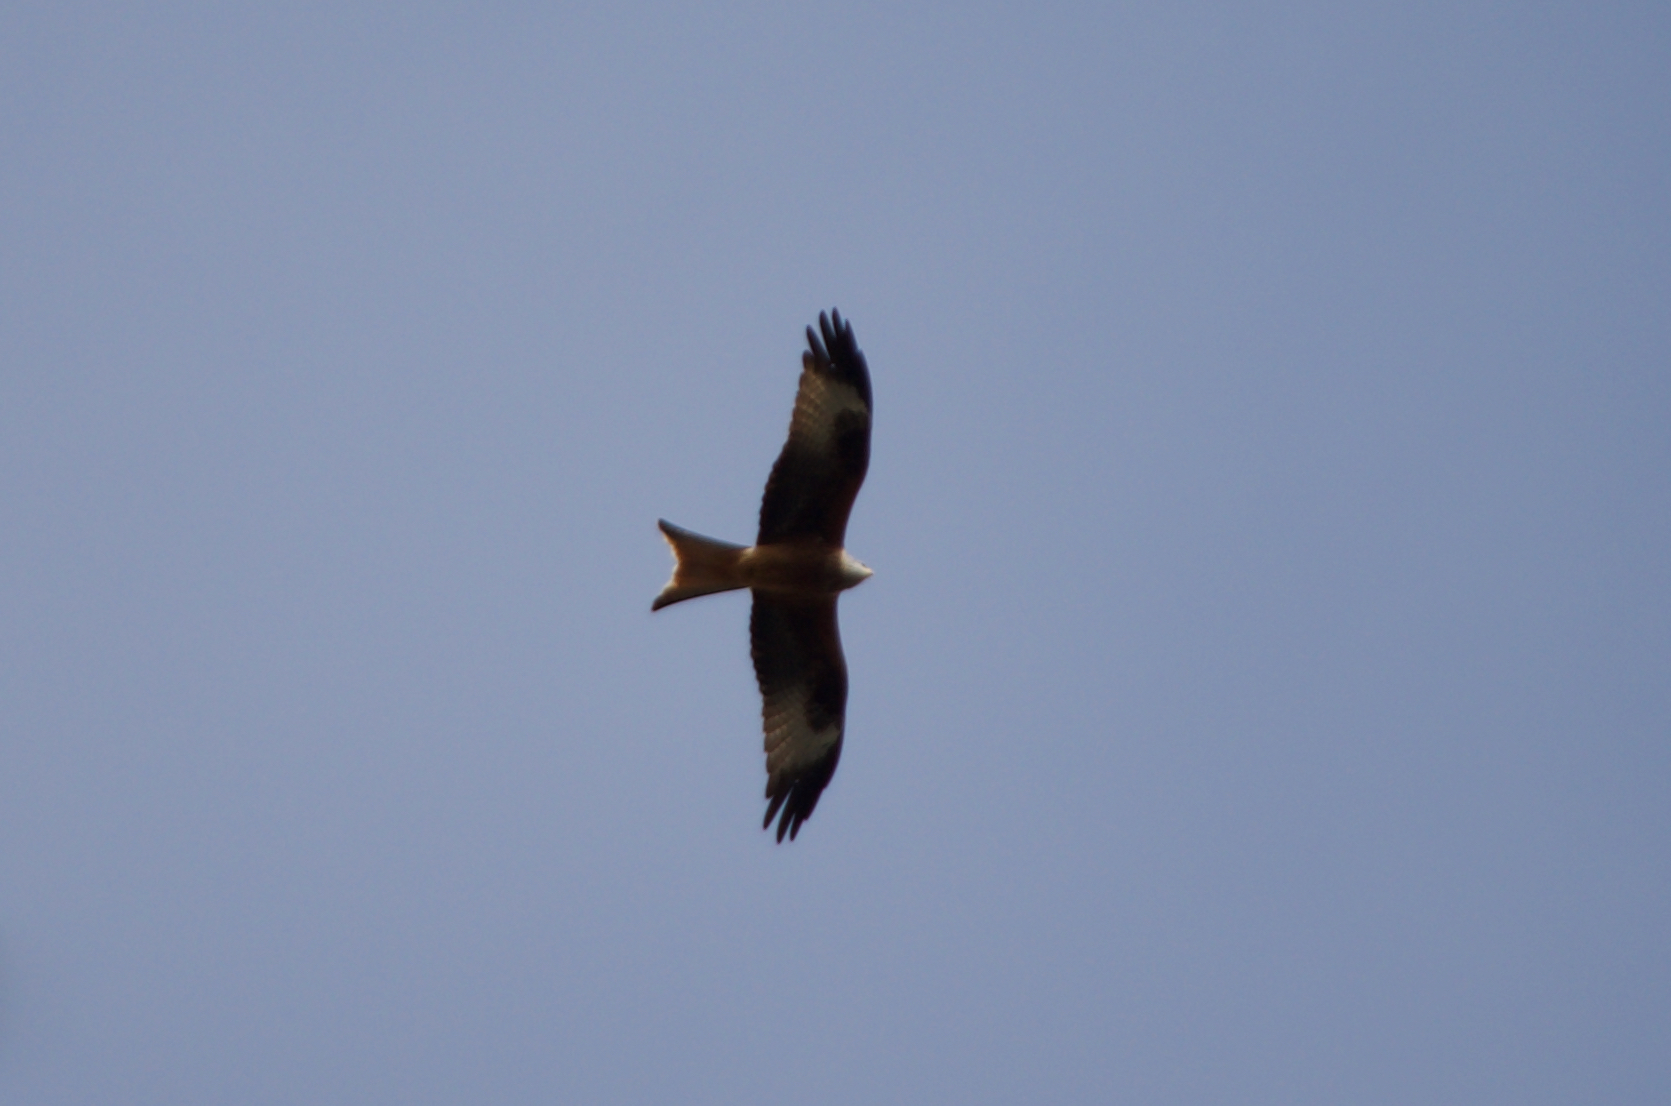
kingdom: Animalia
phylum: Chordata
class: Aves
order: Accipitriformes
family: Accipitridae
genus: Milvus
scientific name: Milvus milvus
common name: Red kite
